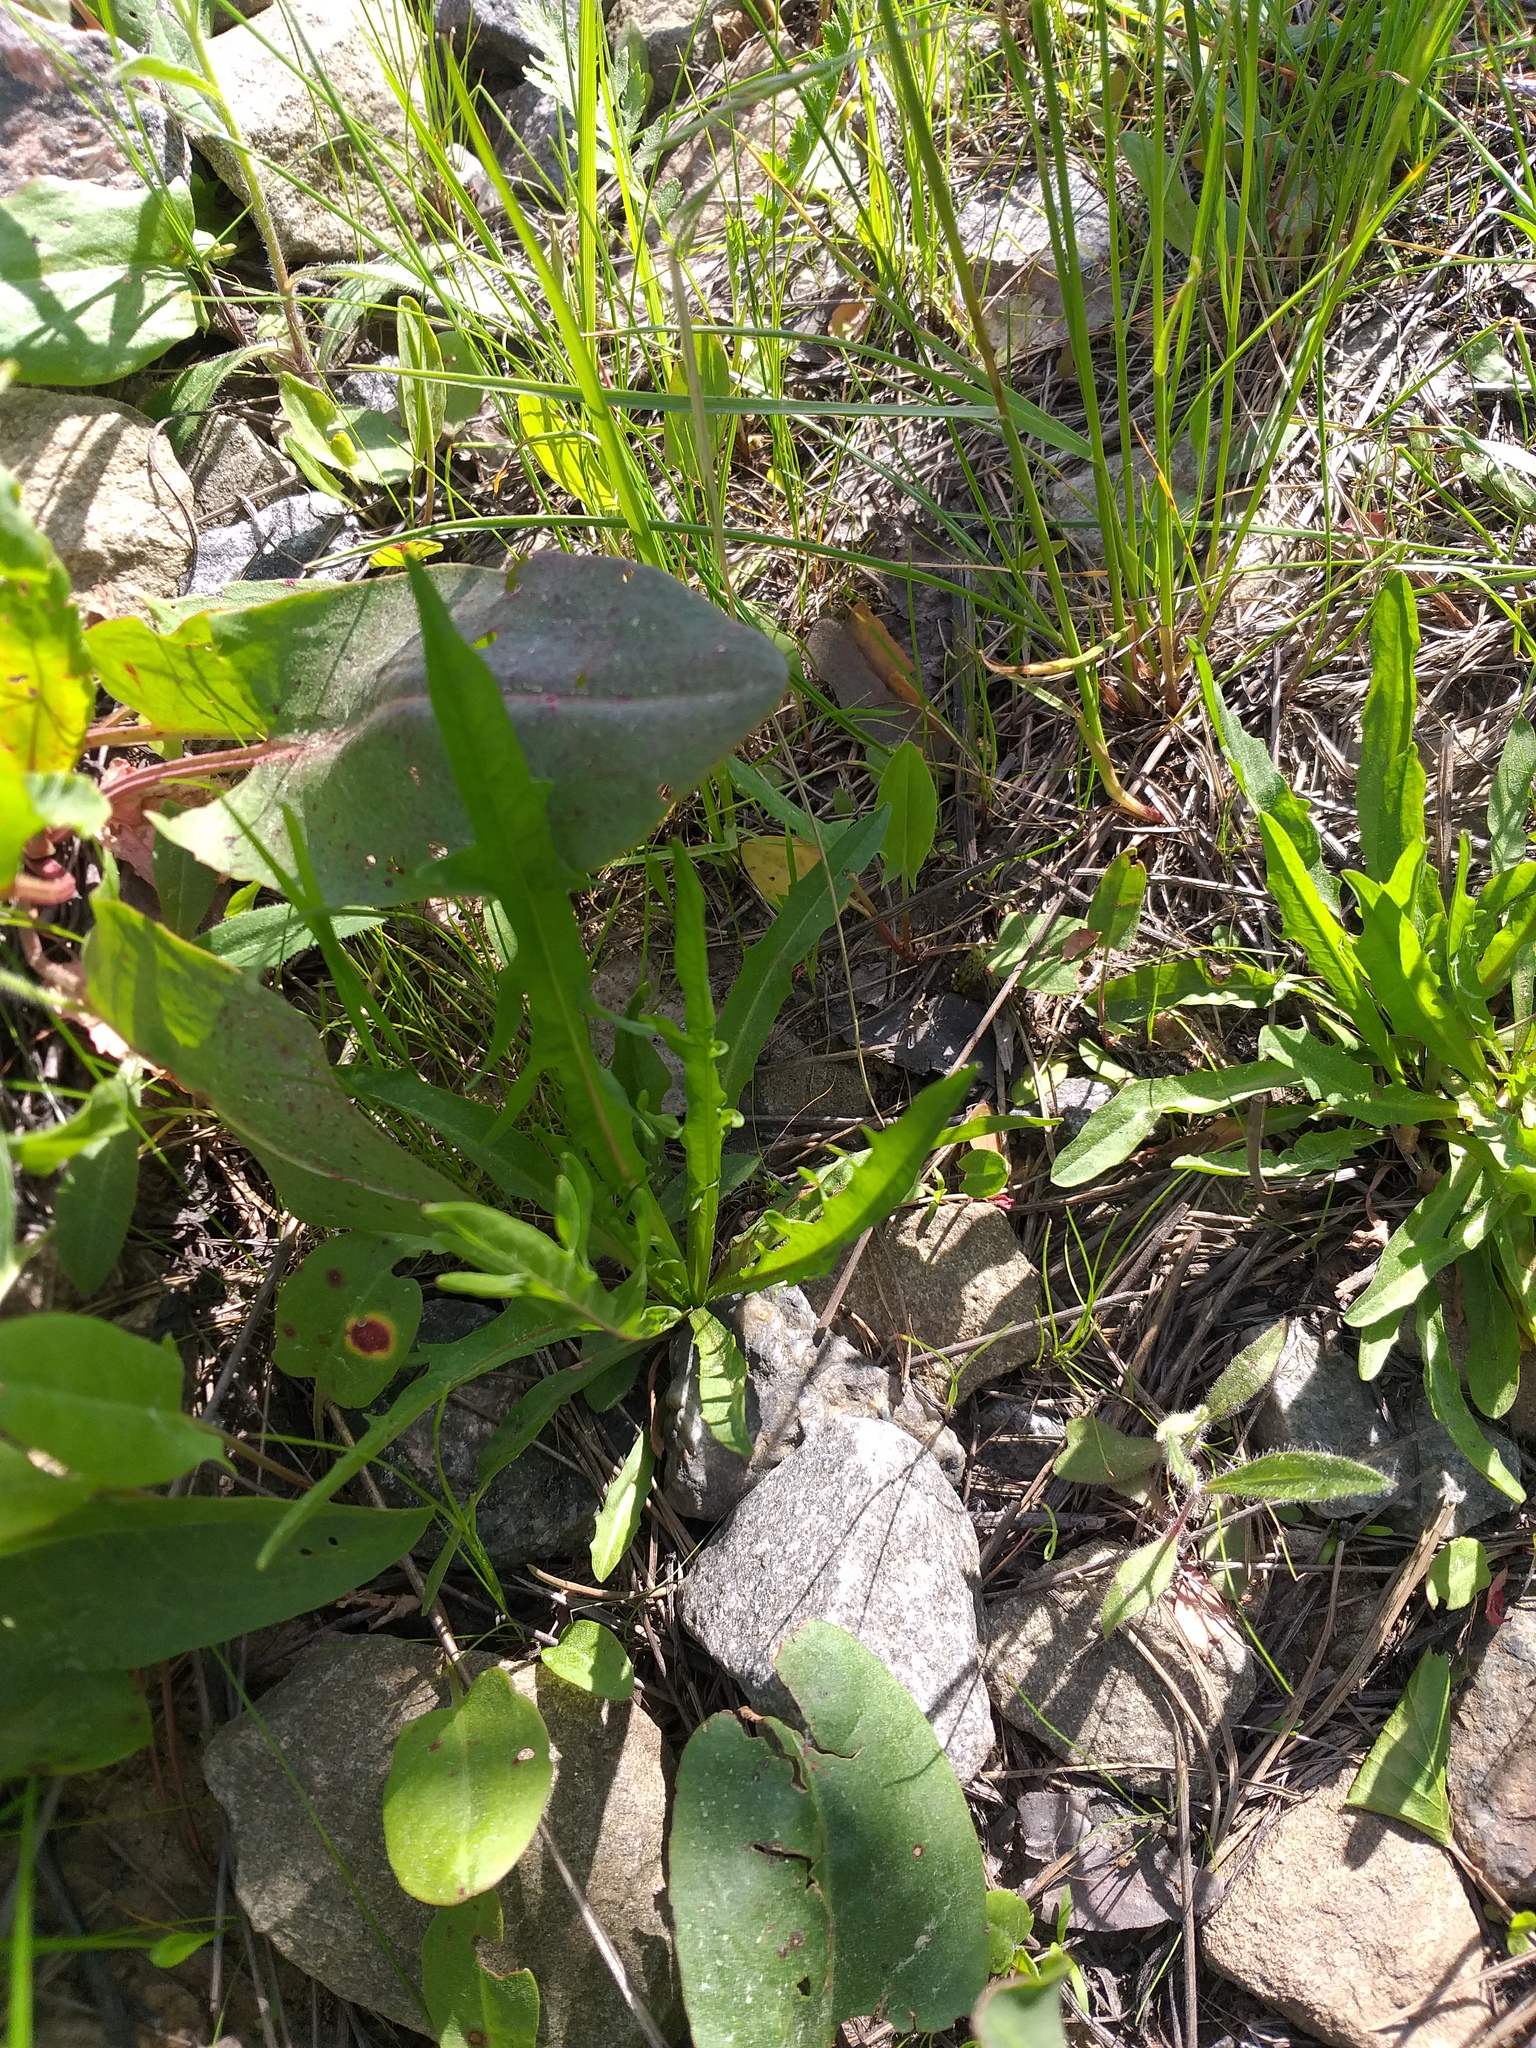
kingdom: Plantae
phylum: Tracheophyta
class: Magnoliopsida
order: Asterales
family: Asteraceae
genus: Scorzoneroides
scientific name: Scorzoneroides autumnalis
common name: Autumn hawkbit
